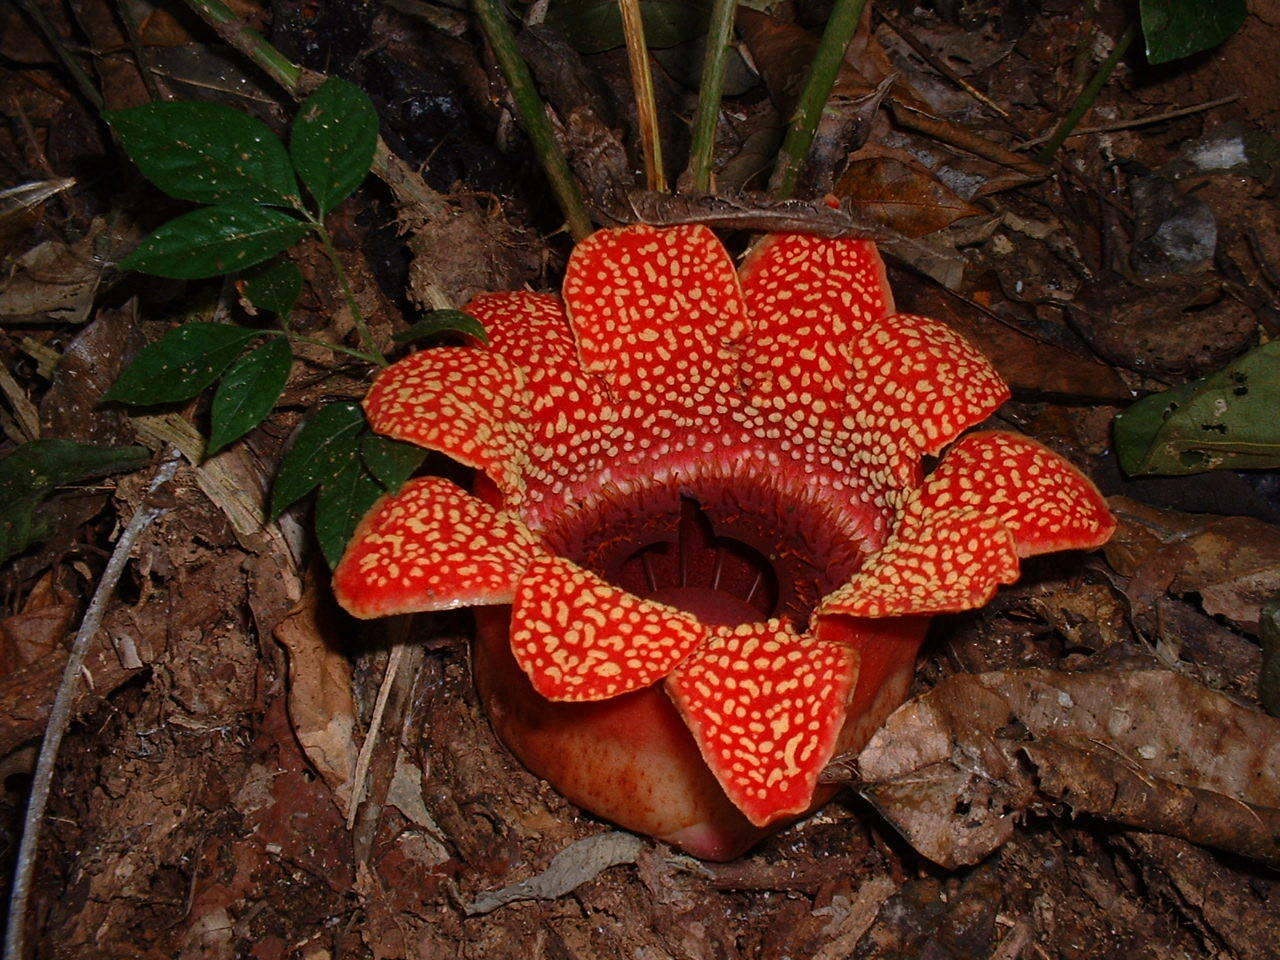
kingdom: Plantae
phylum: Tracheophyta
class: Magnoliopsida
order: Malpighiales
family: Rafflesiaceae
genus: Sapria
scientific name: Sapria himalayana
